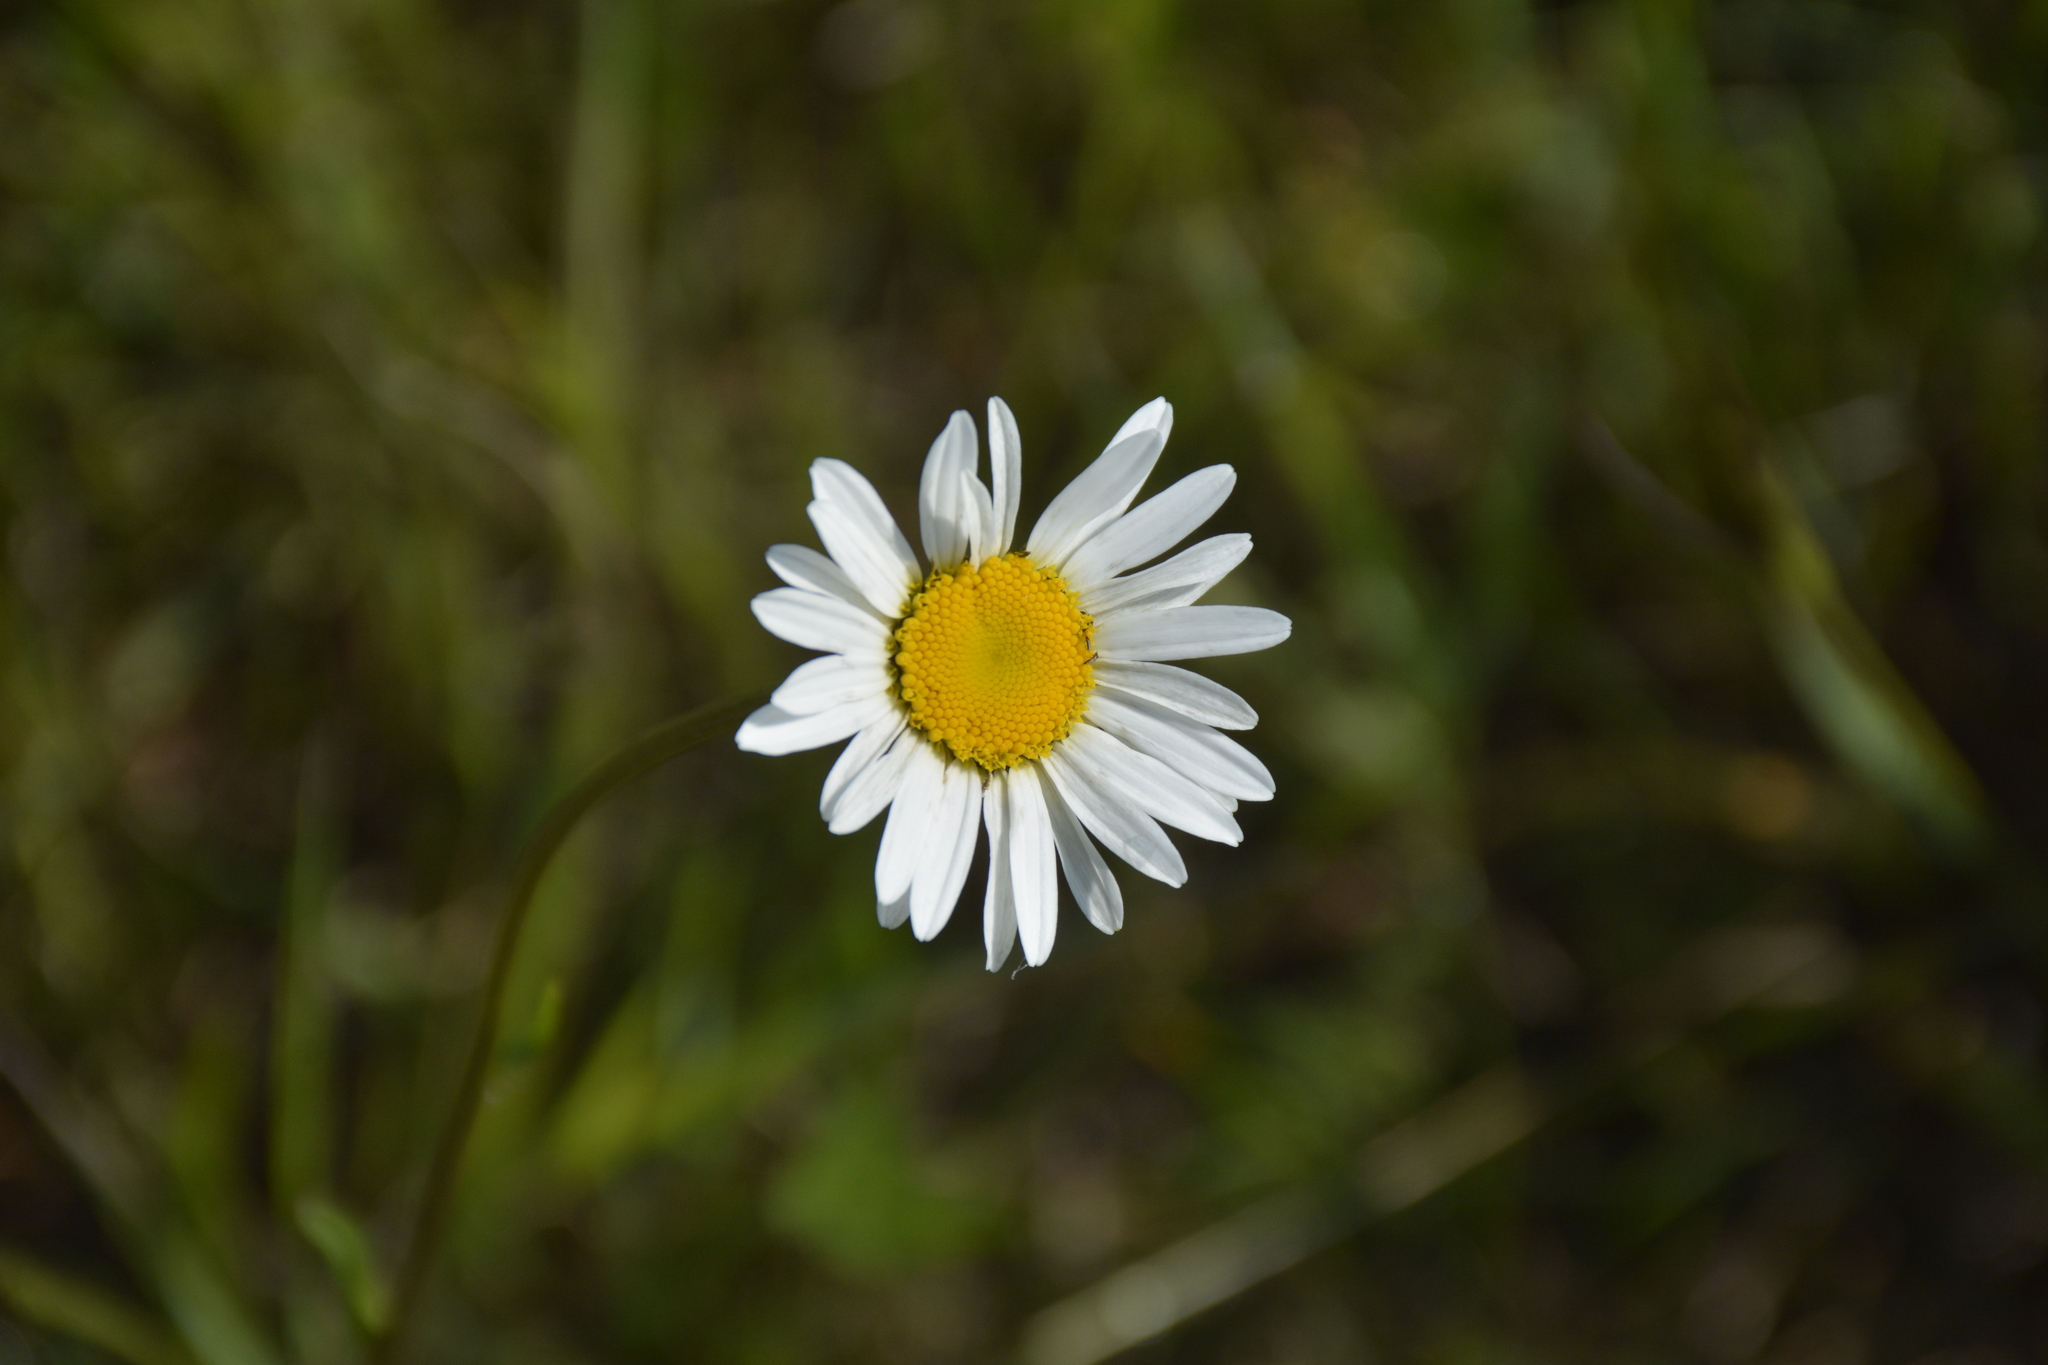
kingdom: Plantae
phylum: Tracheophyta
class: Magnoliopsida
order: Asterales
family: Asteraceae
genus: Leucanthemum
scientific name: Leucanthemum vulgare
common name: Oxeye daisy
